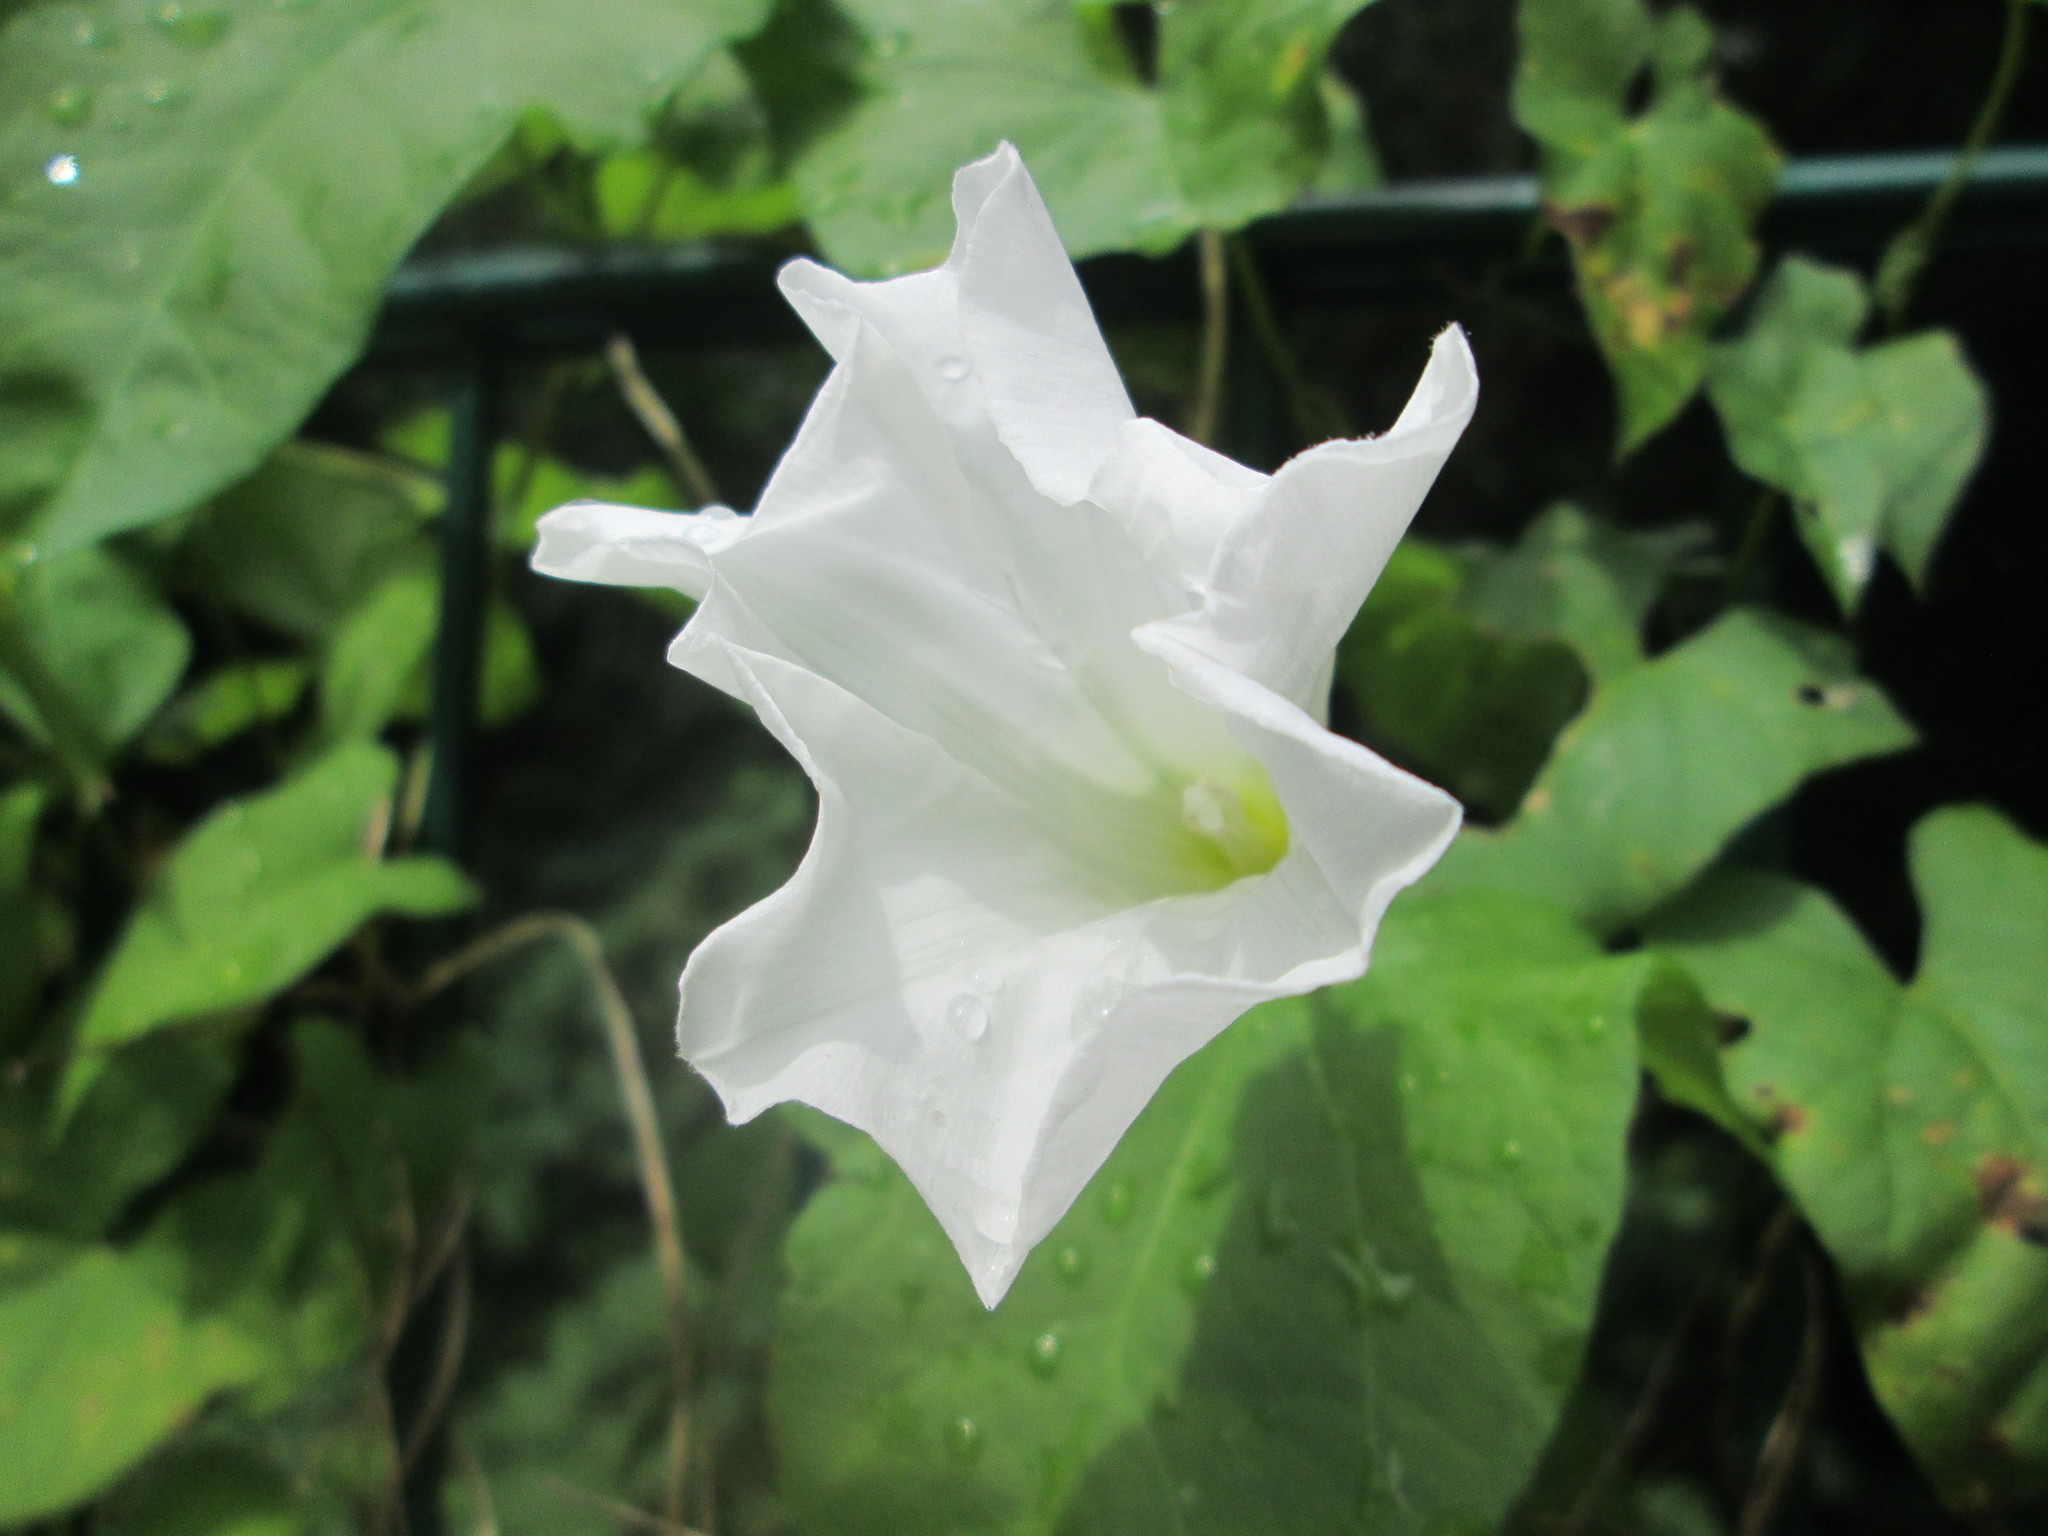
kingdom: Plantae
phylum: Tracheophyta
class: Magnoliopsida
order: Solanales
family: Convolvulaceae
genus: Calystegia
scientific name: Calystegia sepium
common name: Hedge bindweed
